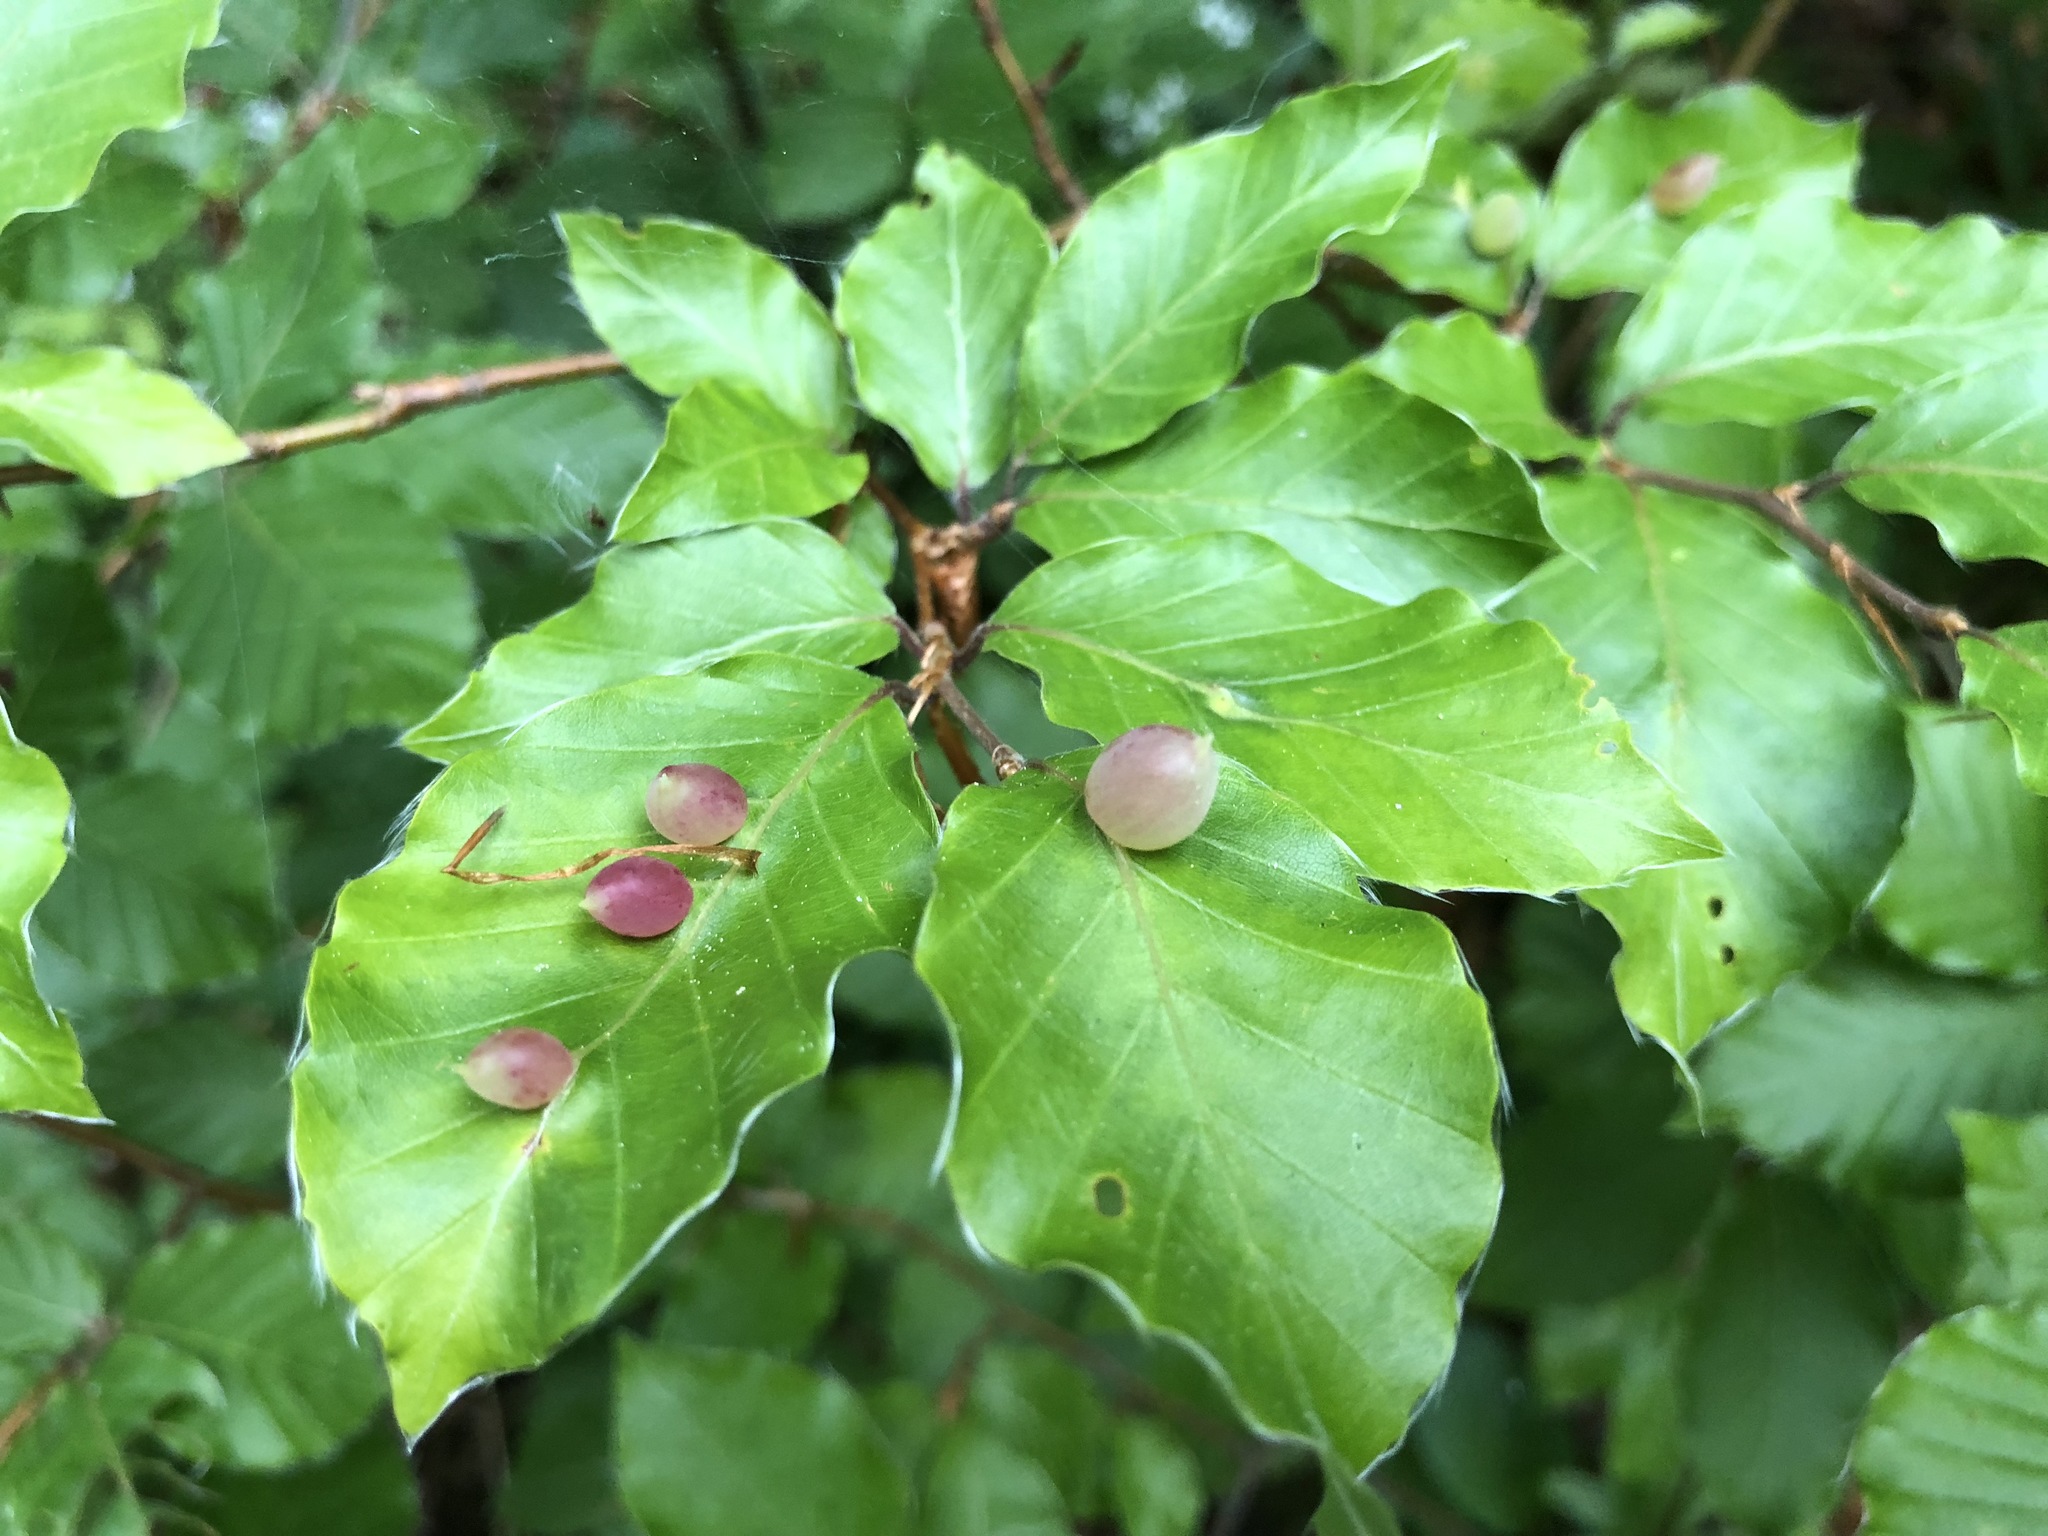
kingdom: Animalia
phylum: Arthropoda
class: Insecta
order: Diptera
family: Cecidomyiidae
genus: Mikiola
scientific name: Mikiola fagi
